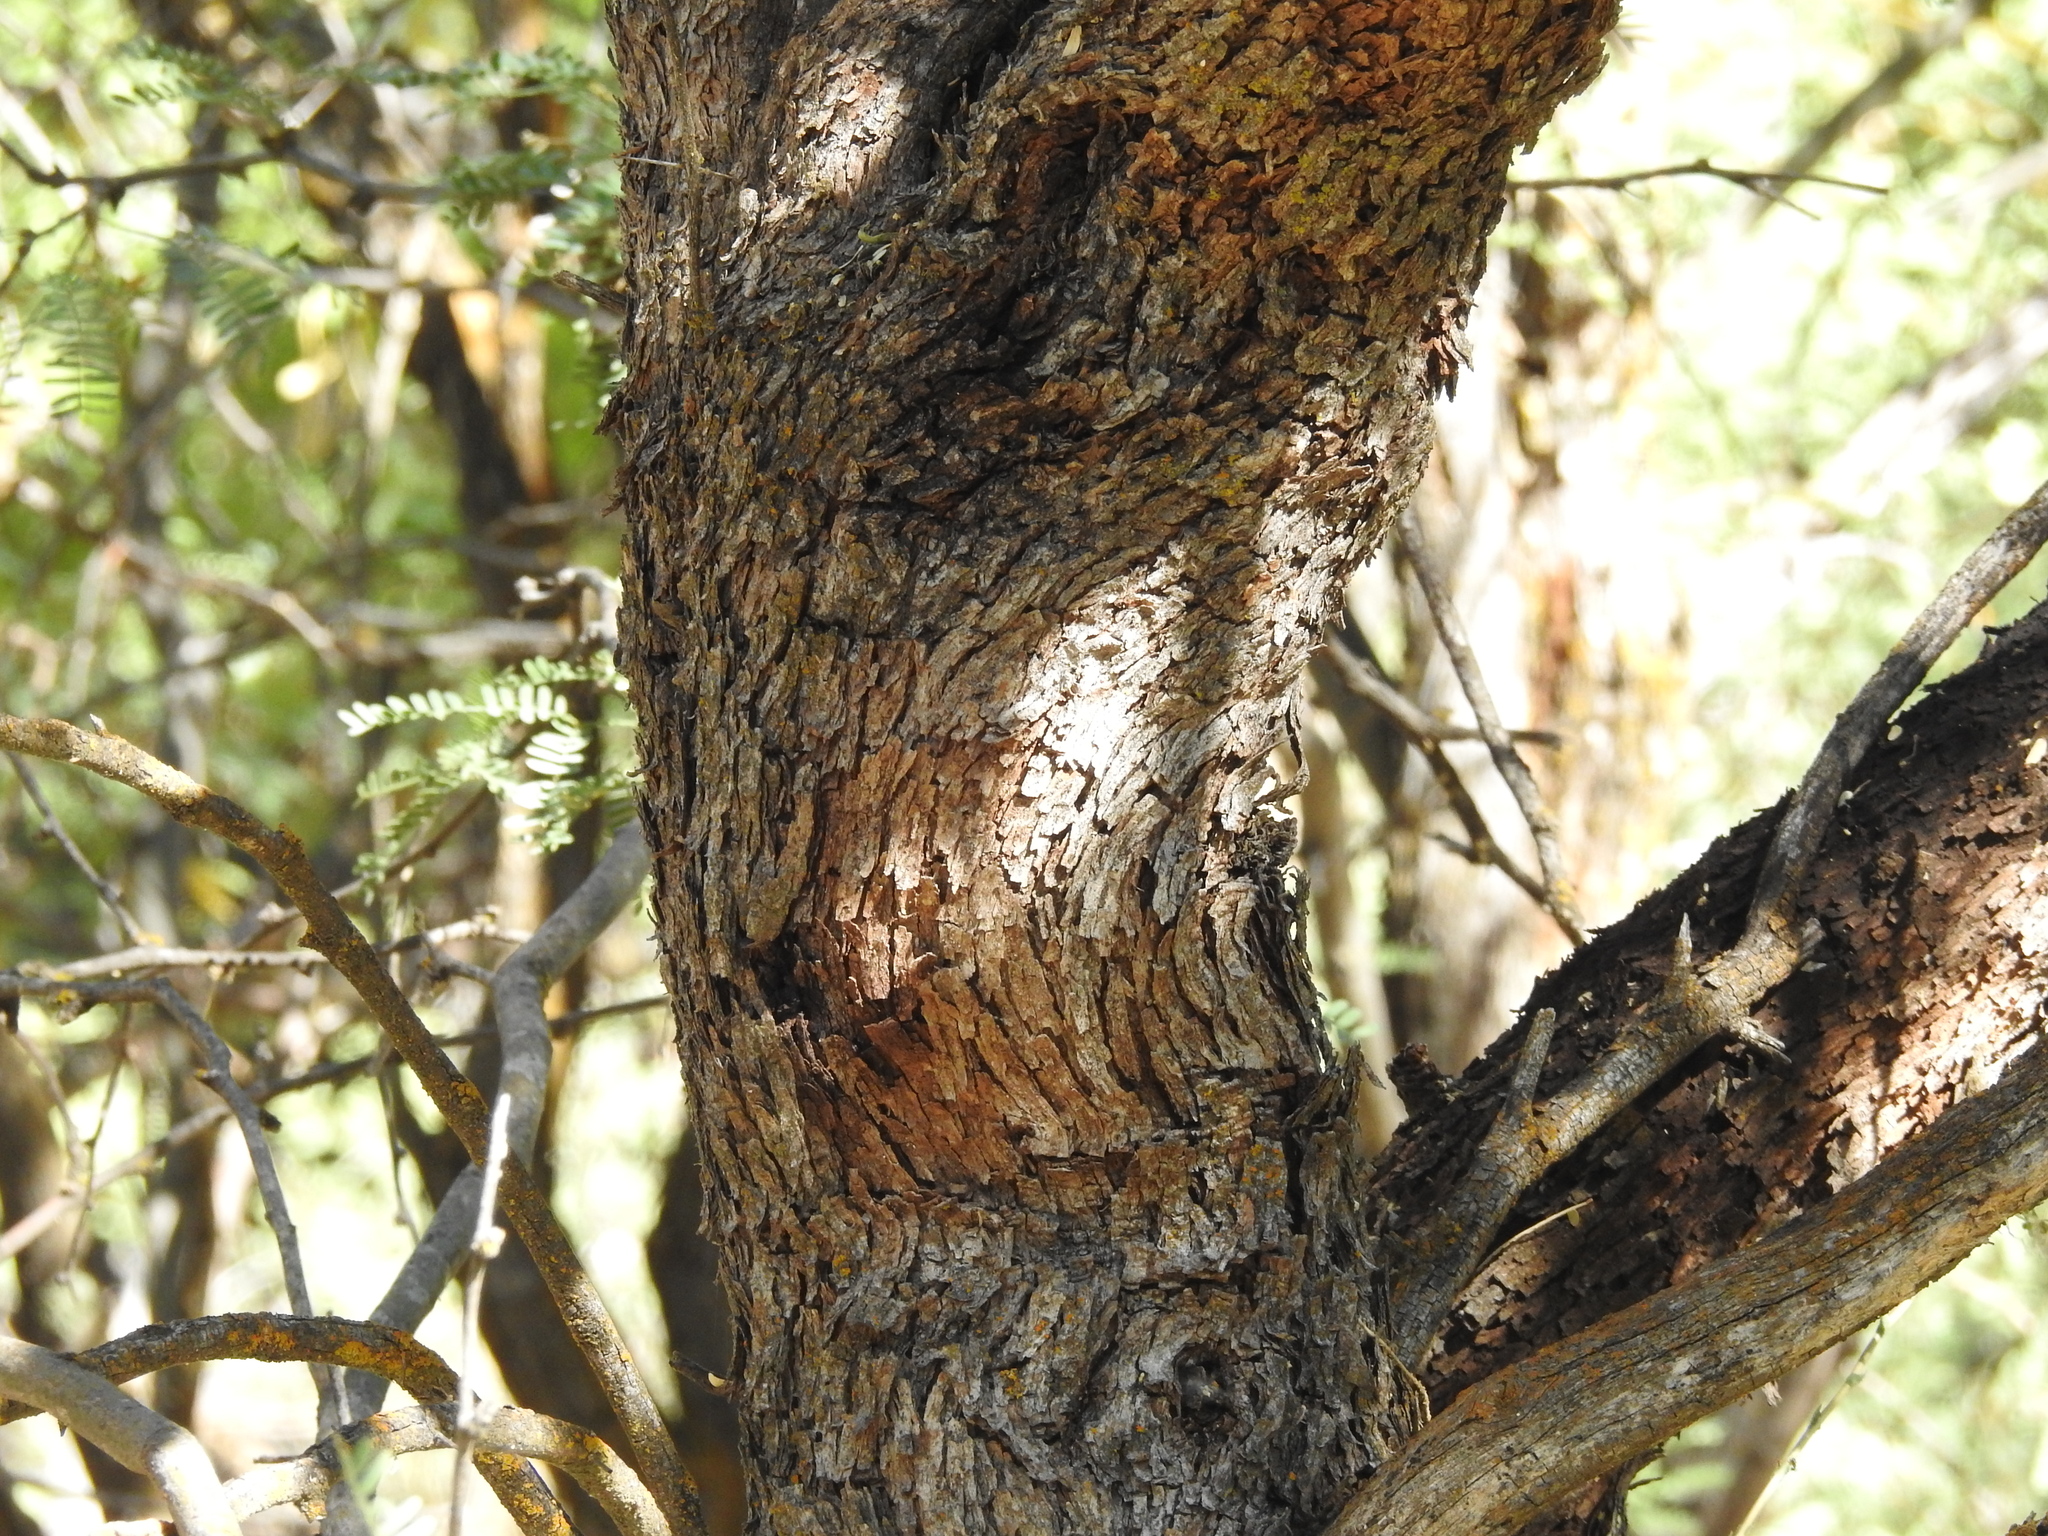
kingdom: Plantae
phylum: Tracheophyta
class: Magnoliopsida
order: Fabales
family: Fabaceae
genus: Prosopis
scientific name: Prosopis velutina
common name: Velvet mesquite
